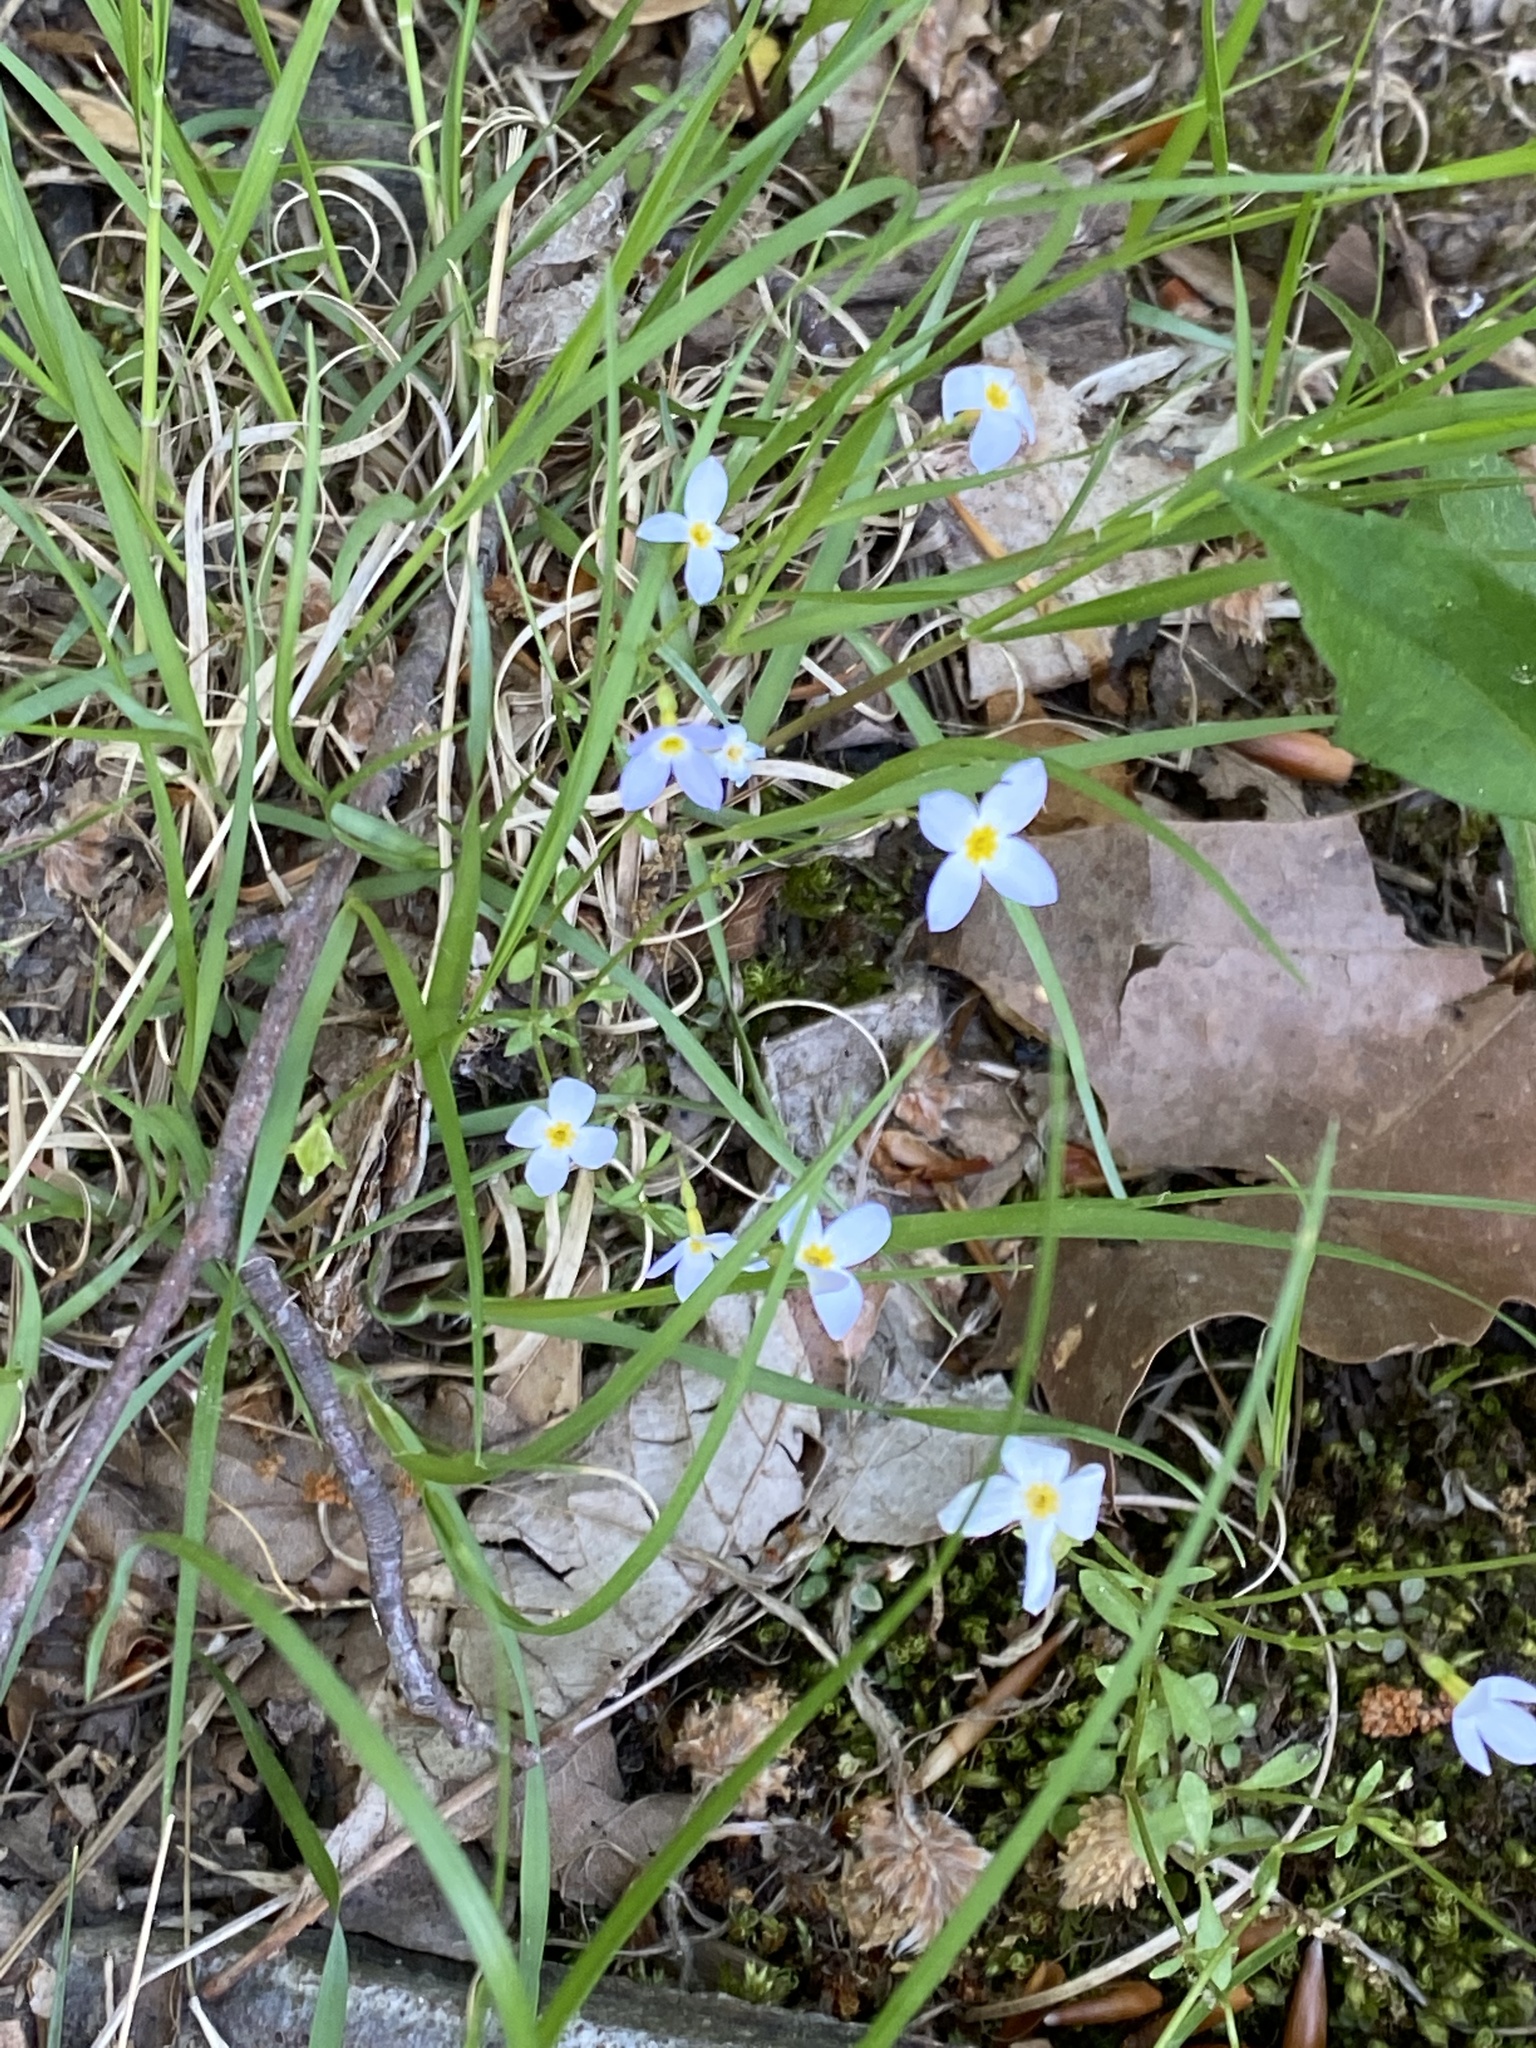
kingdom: Plantae
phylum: Tracheophyta
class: Magnoliopsida
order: Gentianales
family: Rubiaceae
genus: Houstonia
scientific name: Houstonia caerulea
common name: Bluets
